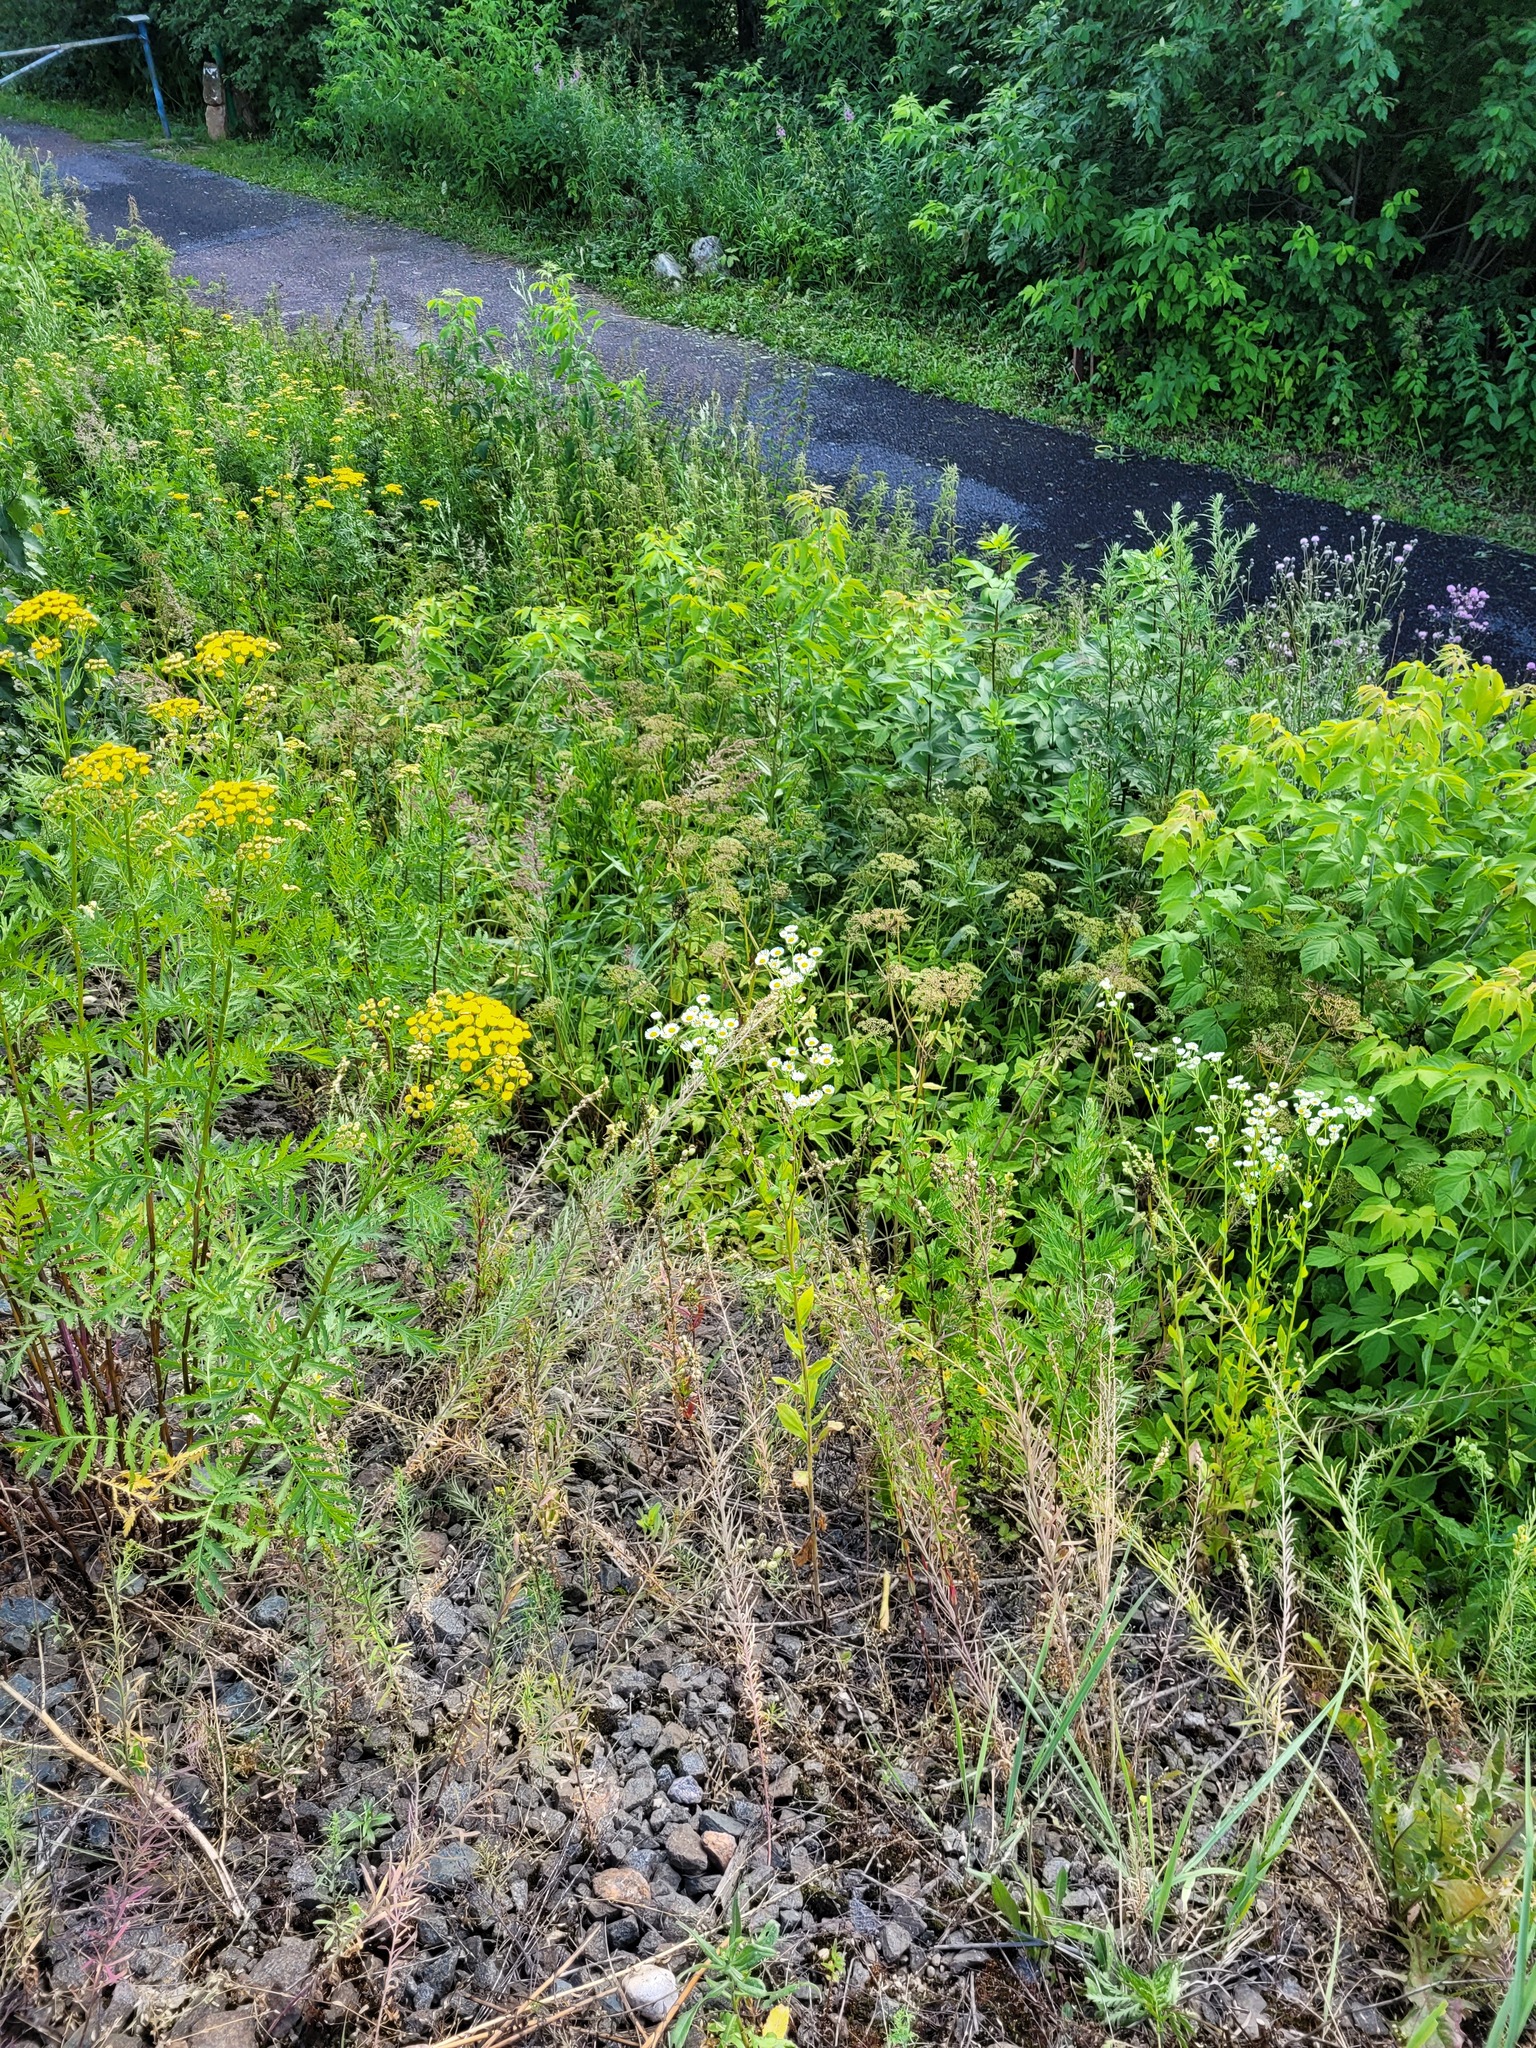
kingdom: Plantae
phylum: Tracheophyta
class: Magnoliopsida
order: Asterales
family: Asteraceae
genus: Erigeron
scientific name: Erigeron annuus
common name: Tall fleabane
